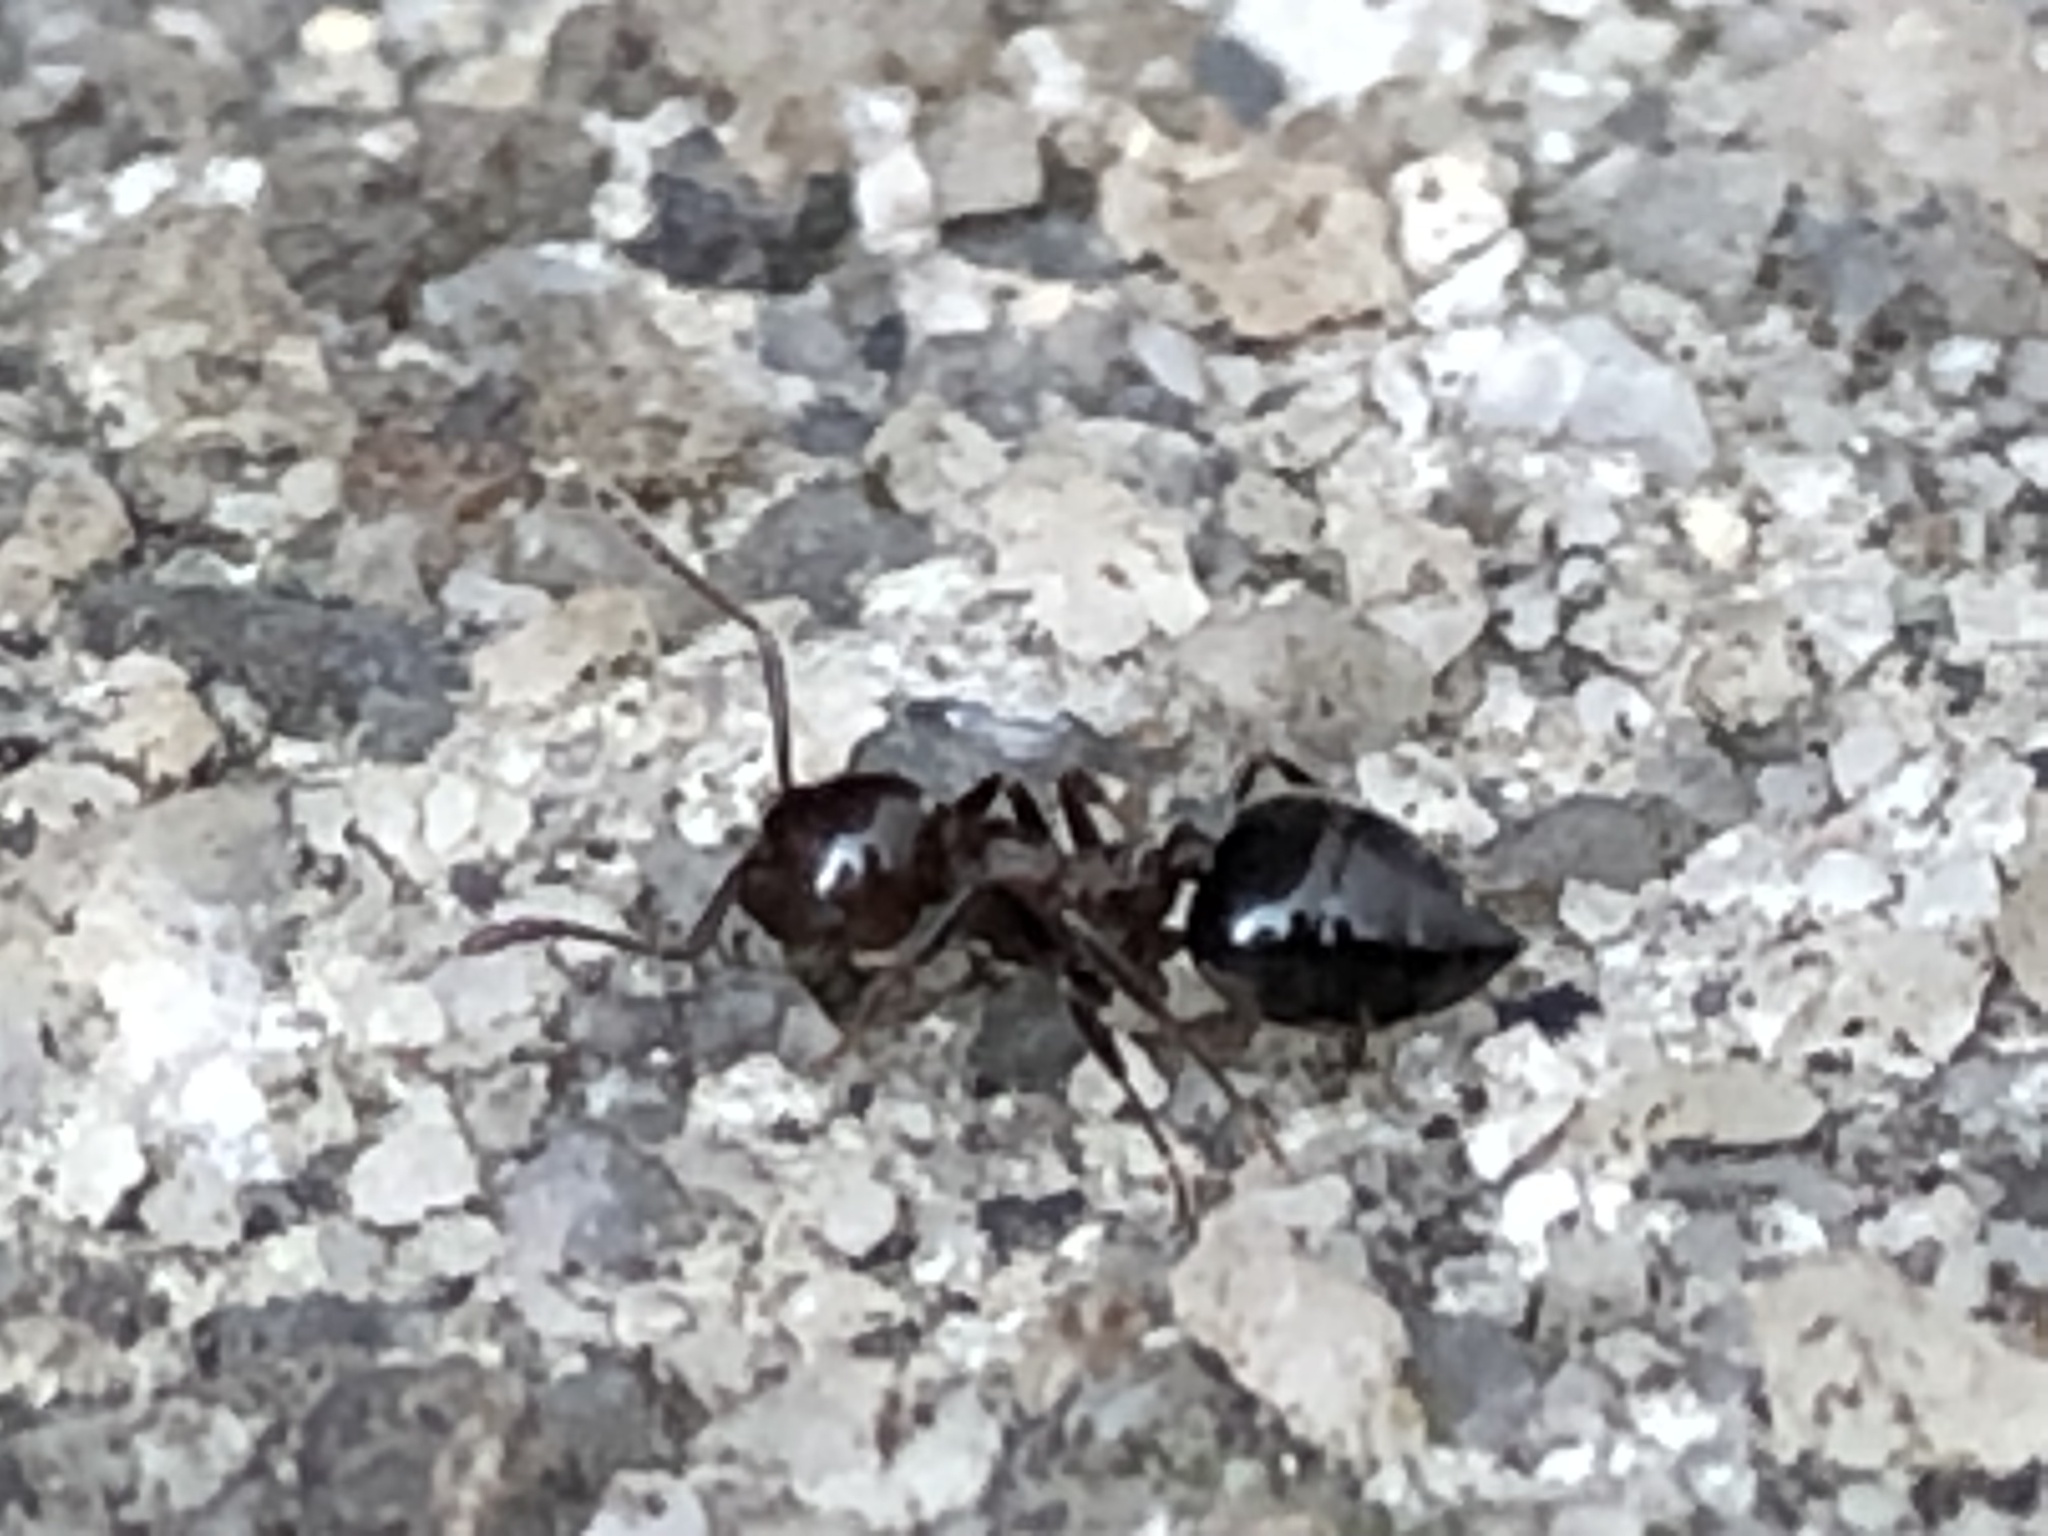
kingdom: Animalia
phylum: Arthropoda
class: Insecta
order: Hymenoptera
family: Formicidae
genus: Crematogaster
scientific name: Crematogaster
